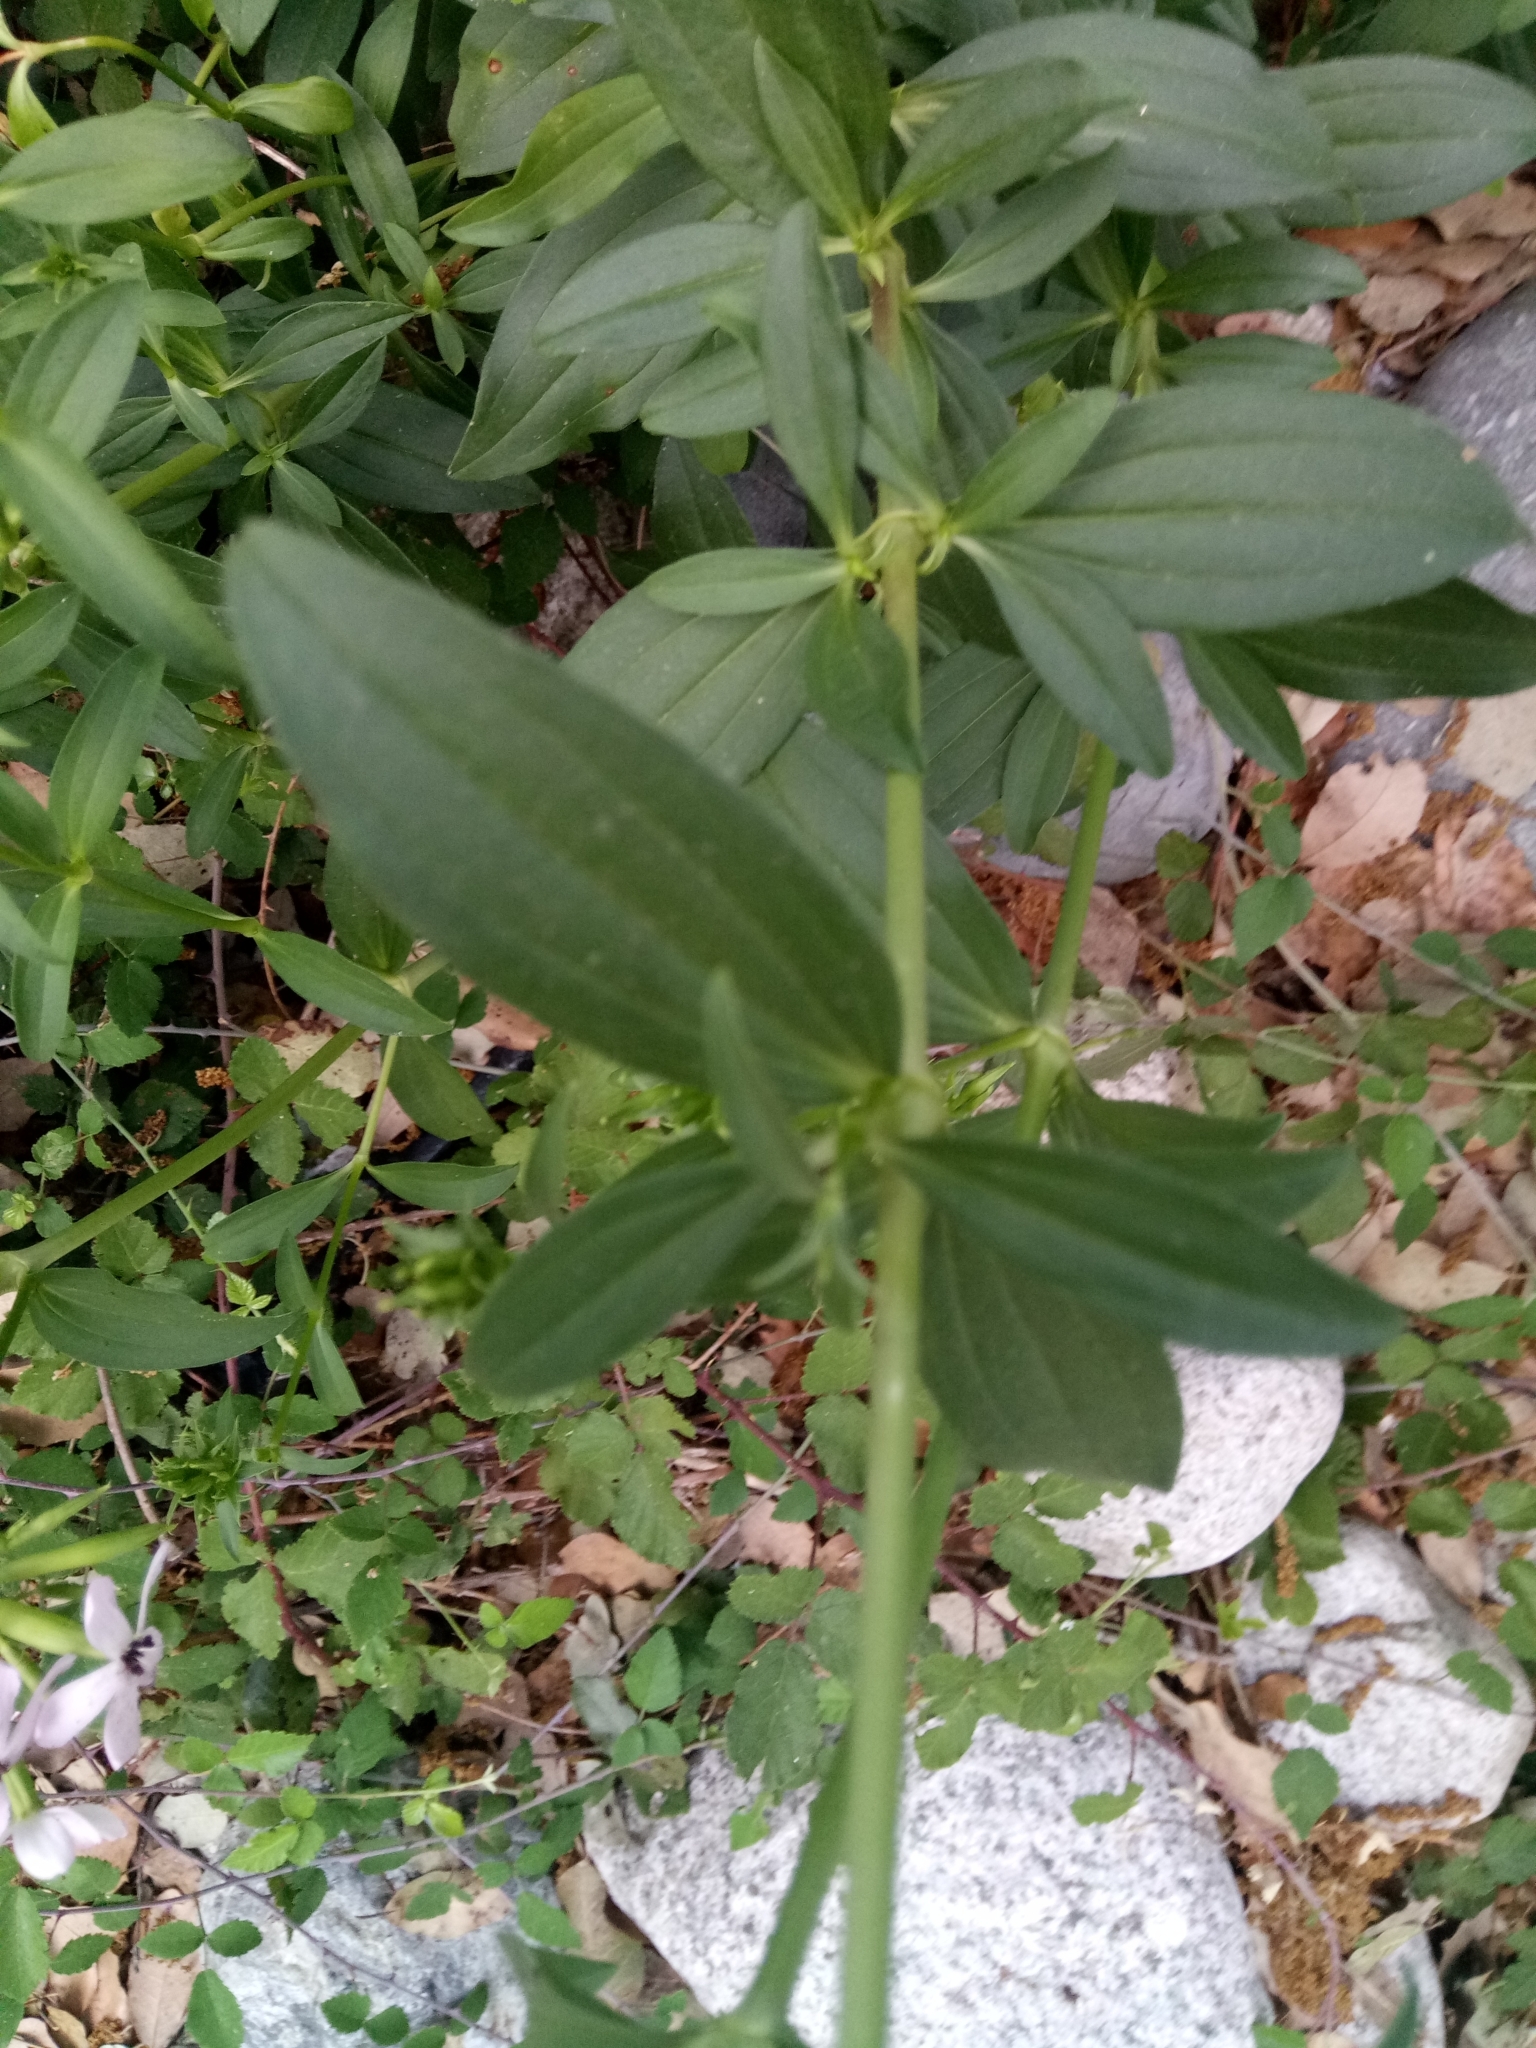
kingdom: Plantae
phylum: Tracheophyta
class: Magnoliopsida
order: Caryophyllales
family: Caryophyllaceae
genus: Saponaria
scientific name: Saponaria officinalis
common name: Soapwort
